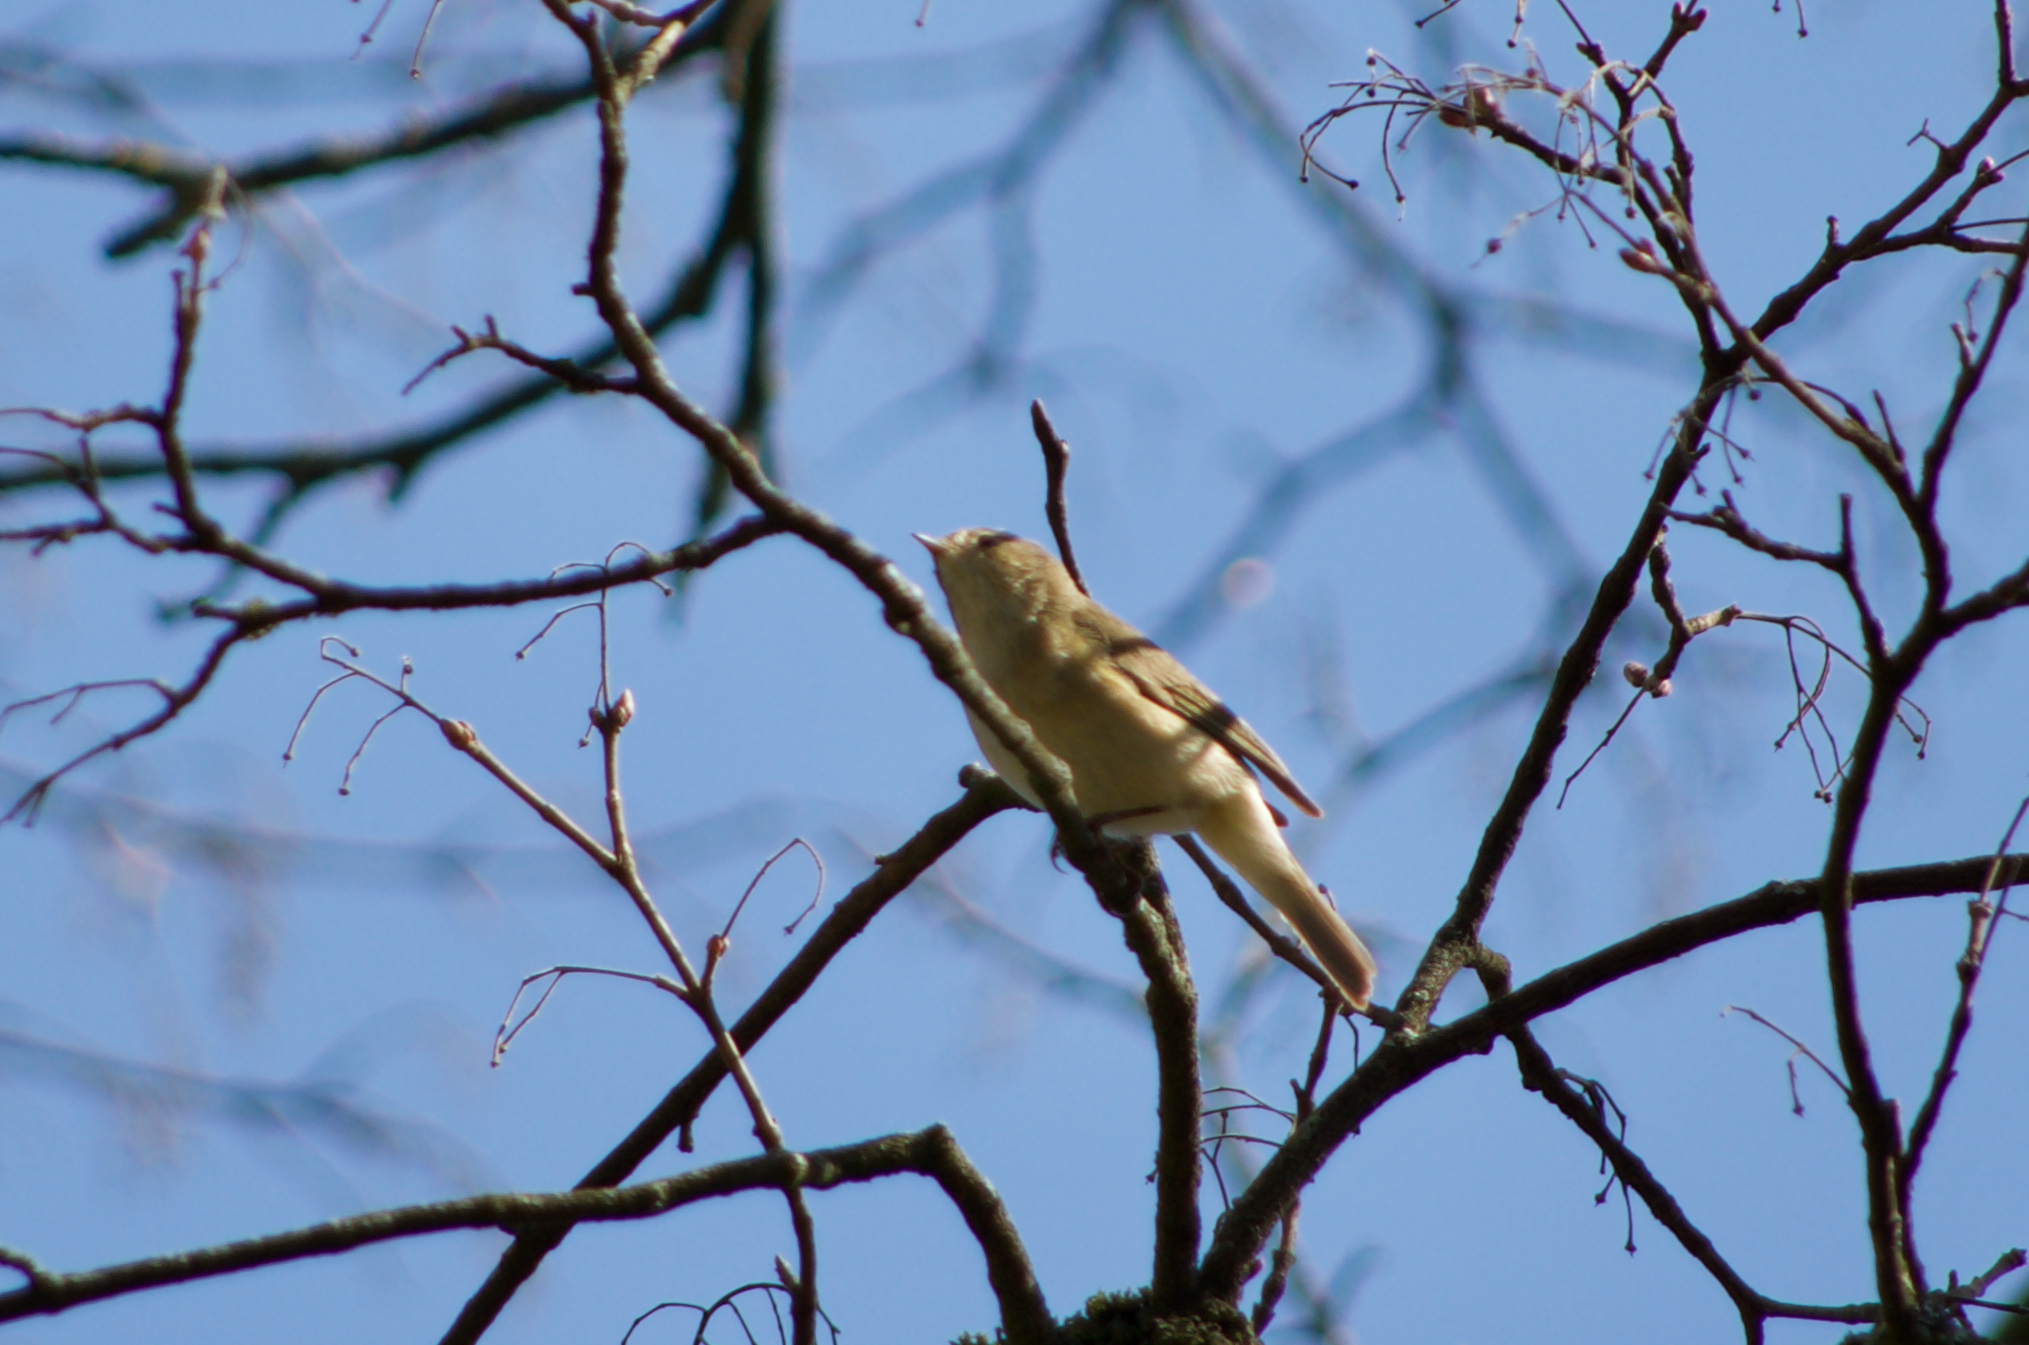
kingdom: Animalia
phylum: Chordata
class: Aves
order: Passeriformes
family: Phylloscopidae
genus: Phylloscopus
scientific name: Phylloscopus collybita
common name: Common chiffchaff
